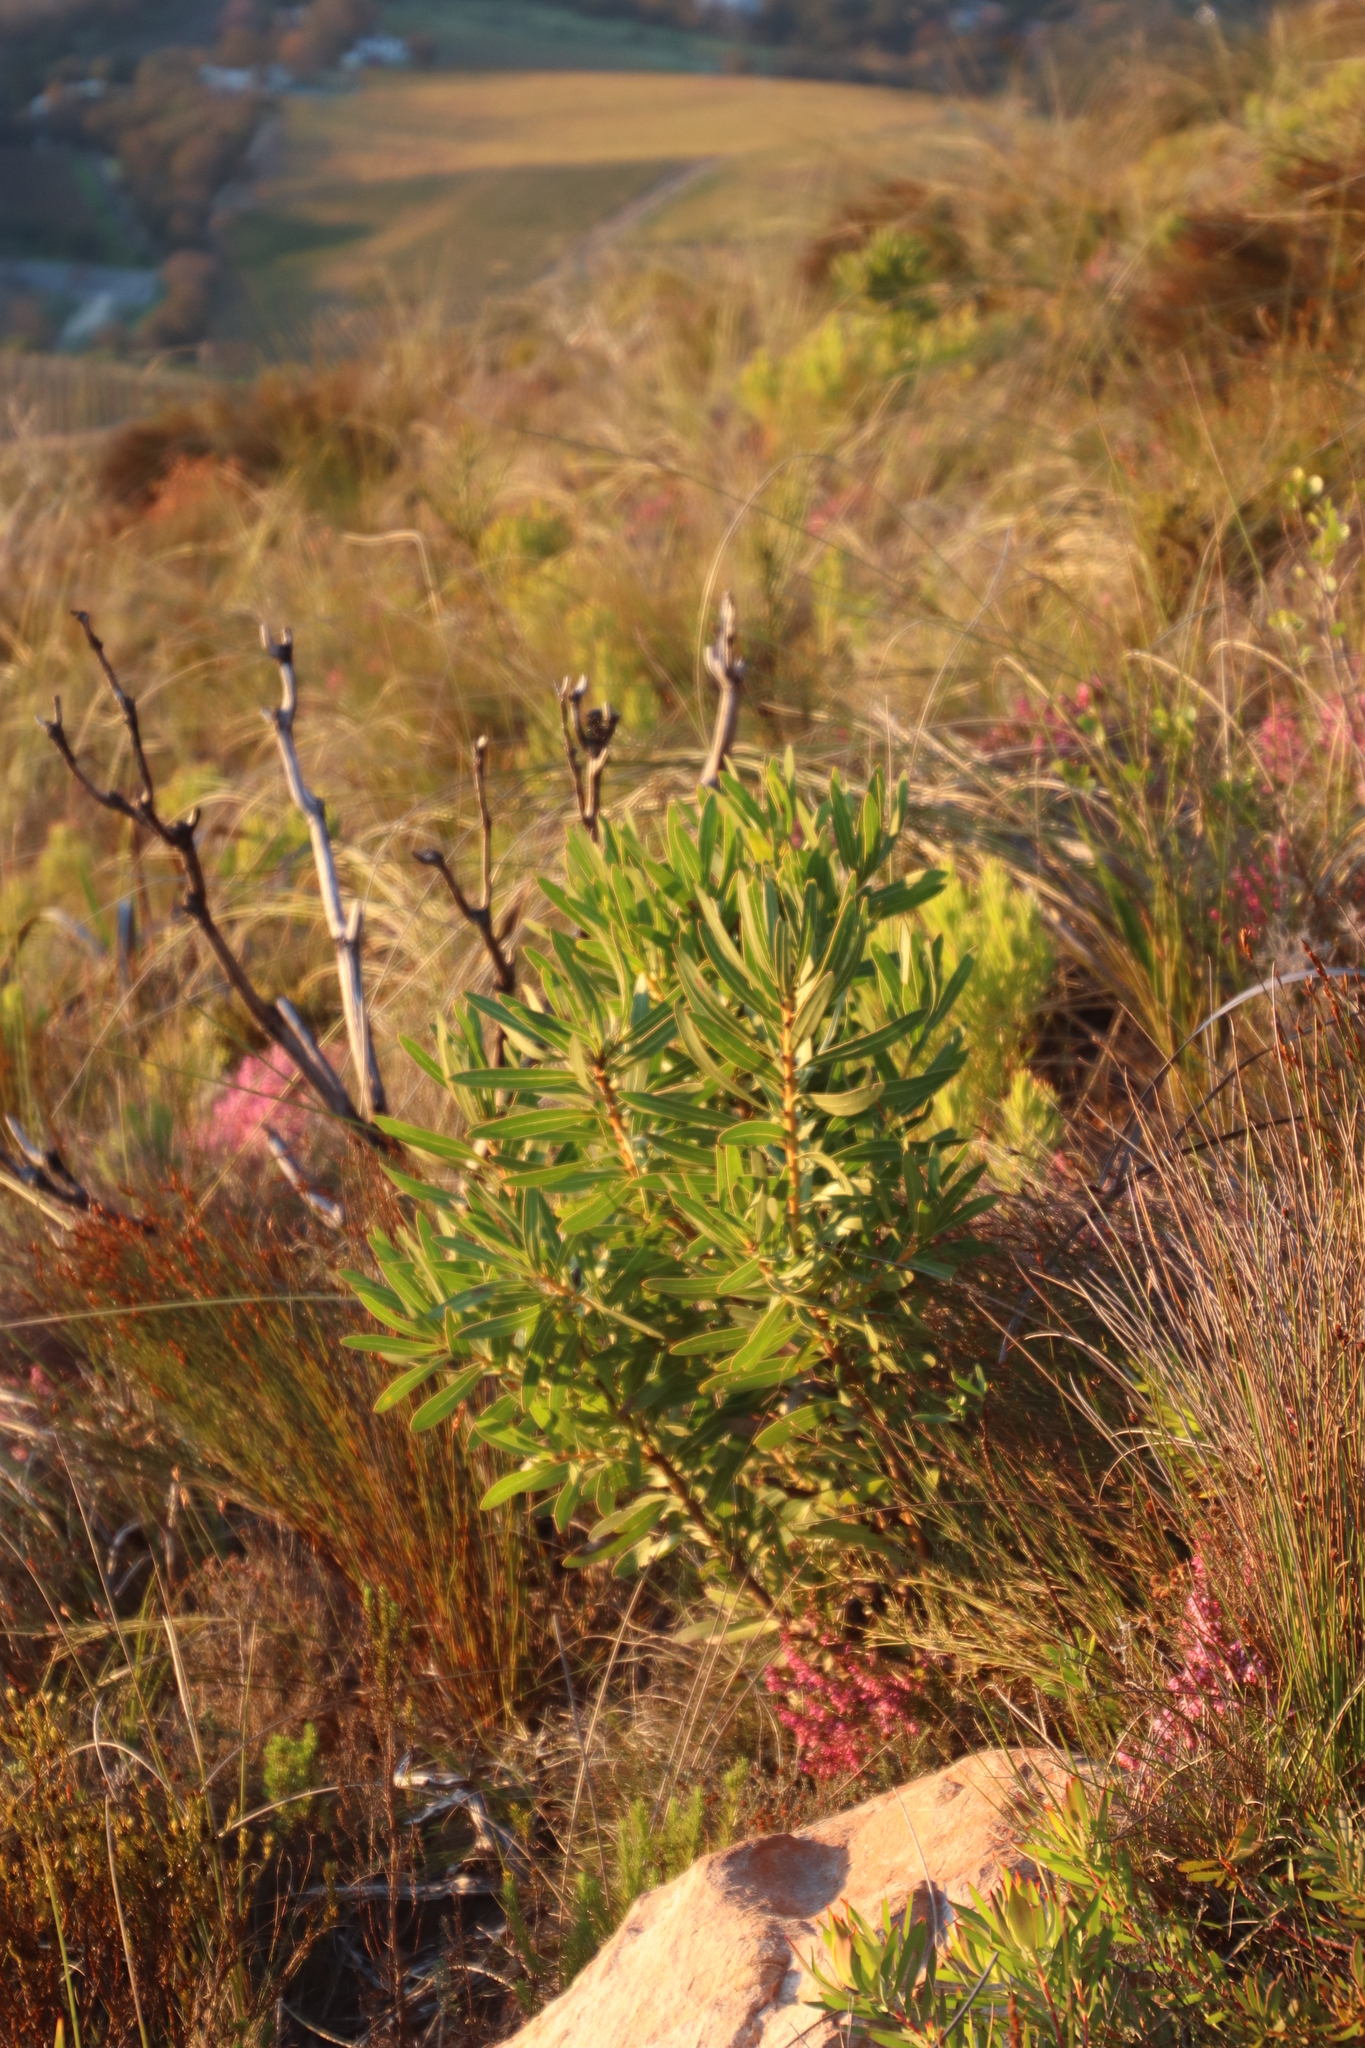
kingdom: Plantae
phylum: Tracheophyta
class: Magnoliopsida
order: Proteales
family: Proteaceae
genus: Protea
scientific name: Protea lepidocarpodendron
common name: Black-bearded protea
